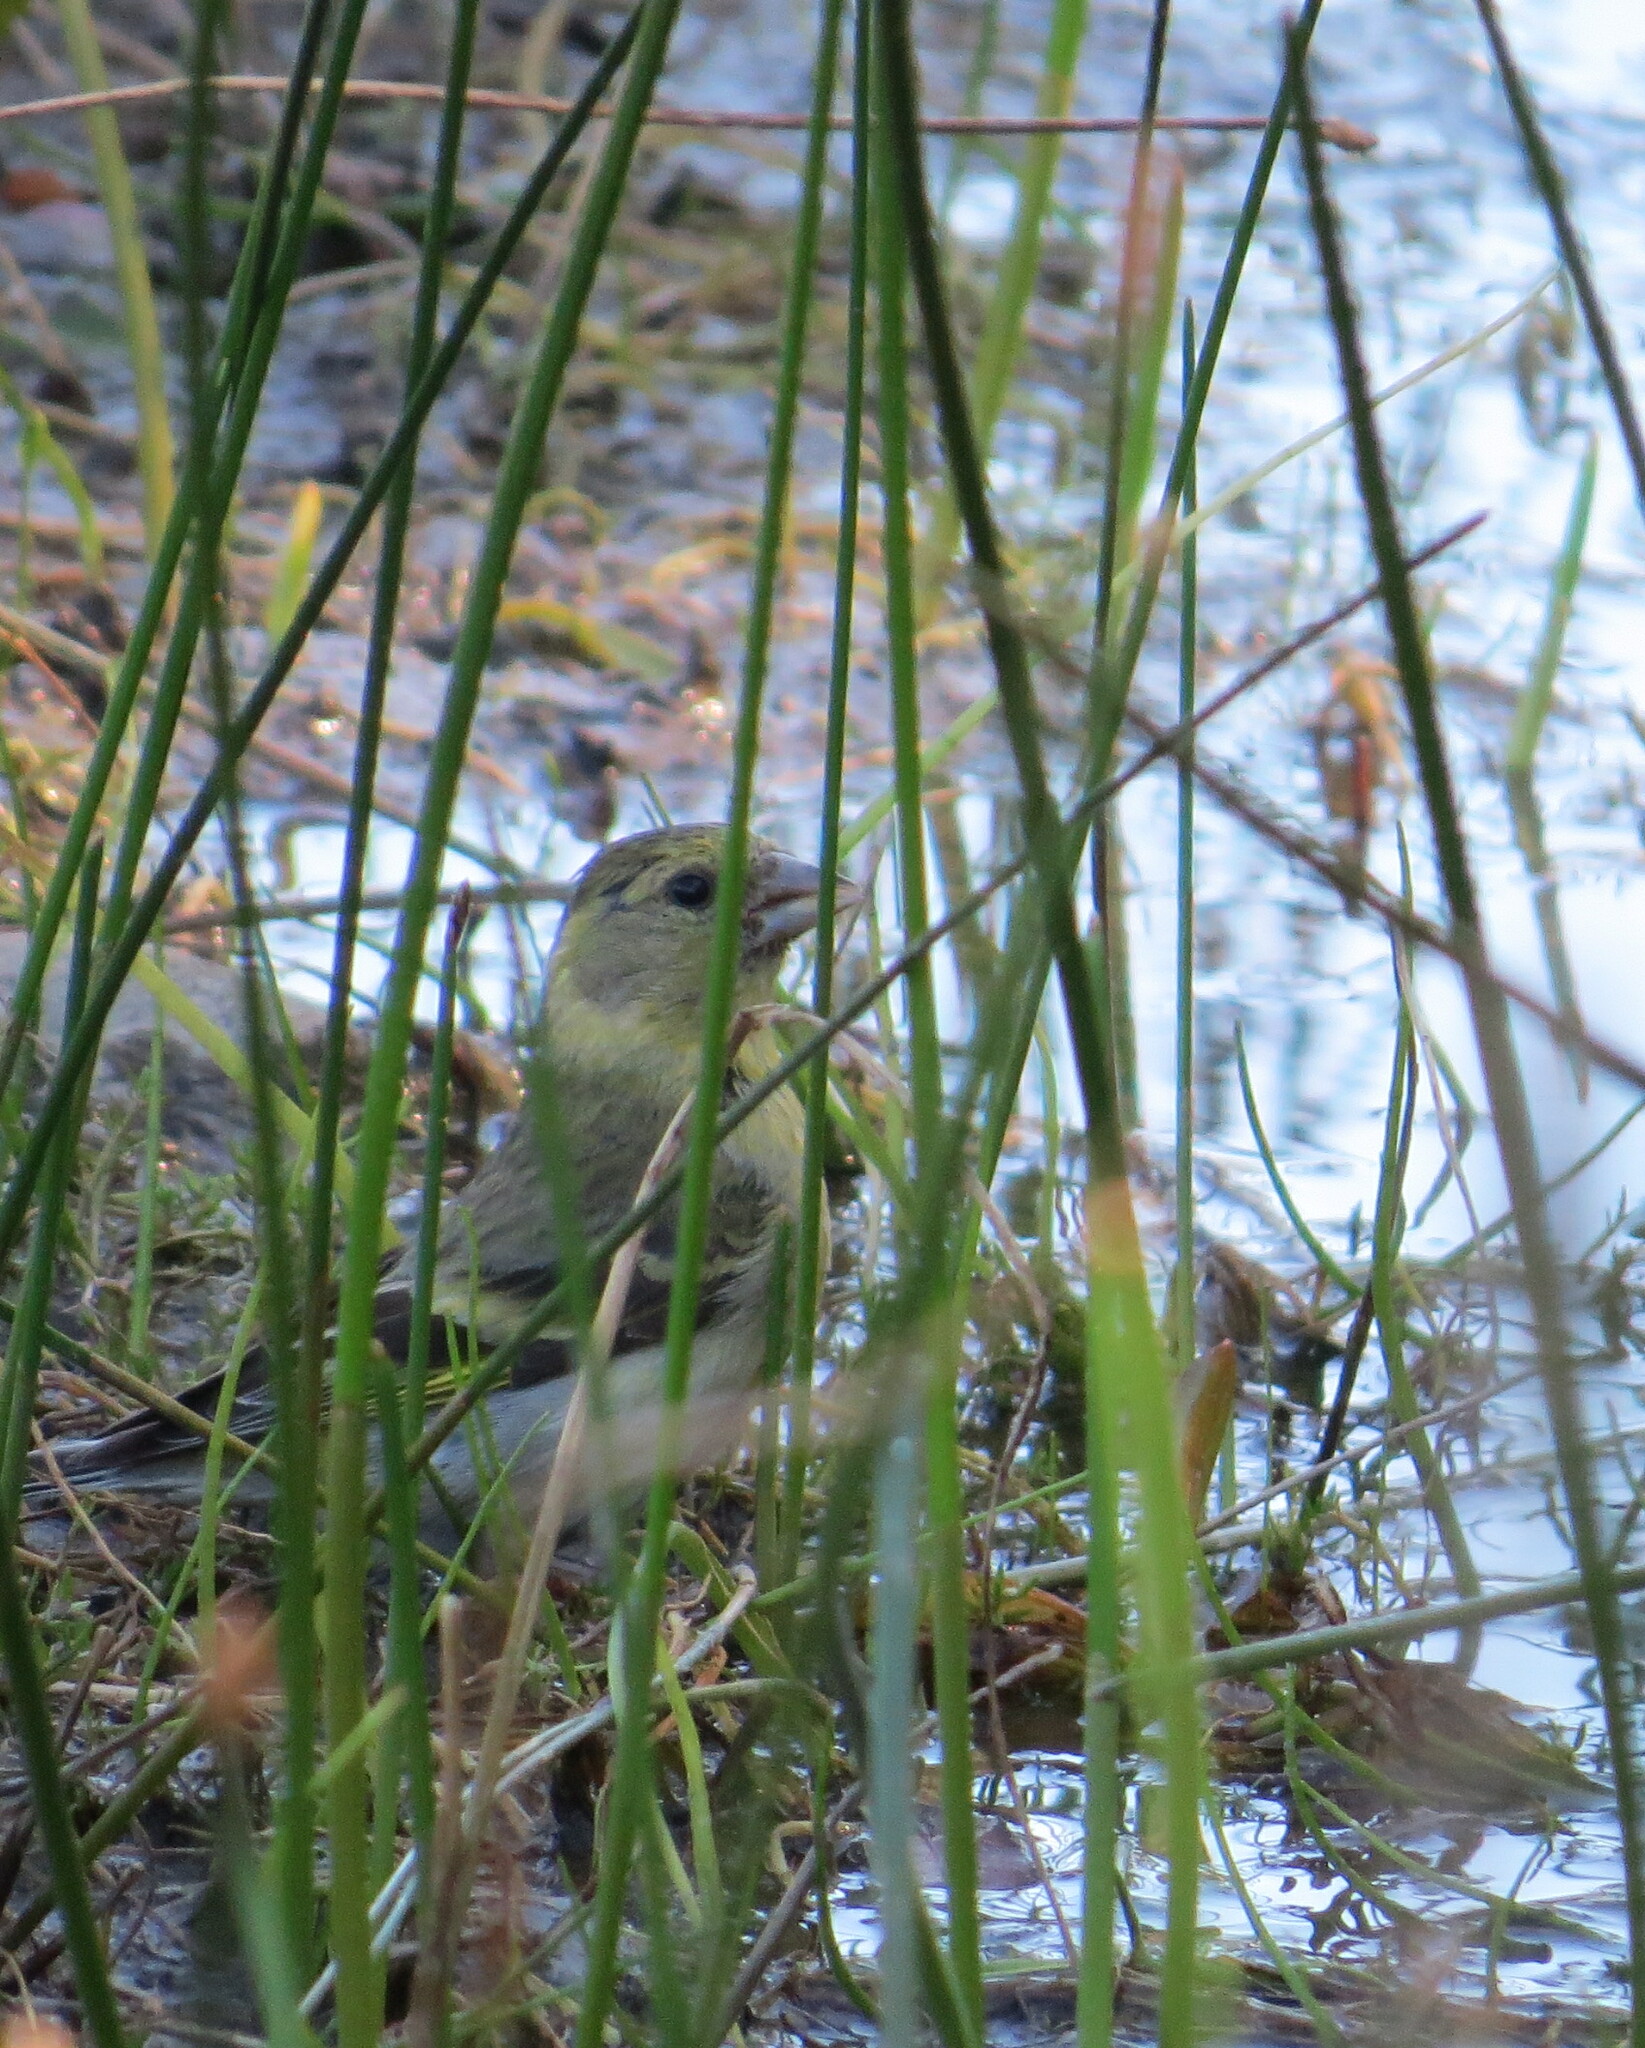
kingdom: Animalia
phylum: Chordata
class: Aves
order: Passeriformes
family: Fringillidae
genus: Spinus
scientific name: Spinus barbatus
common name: Black-chinned siskin
